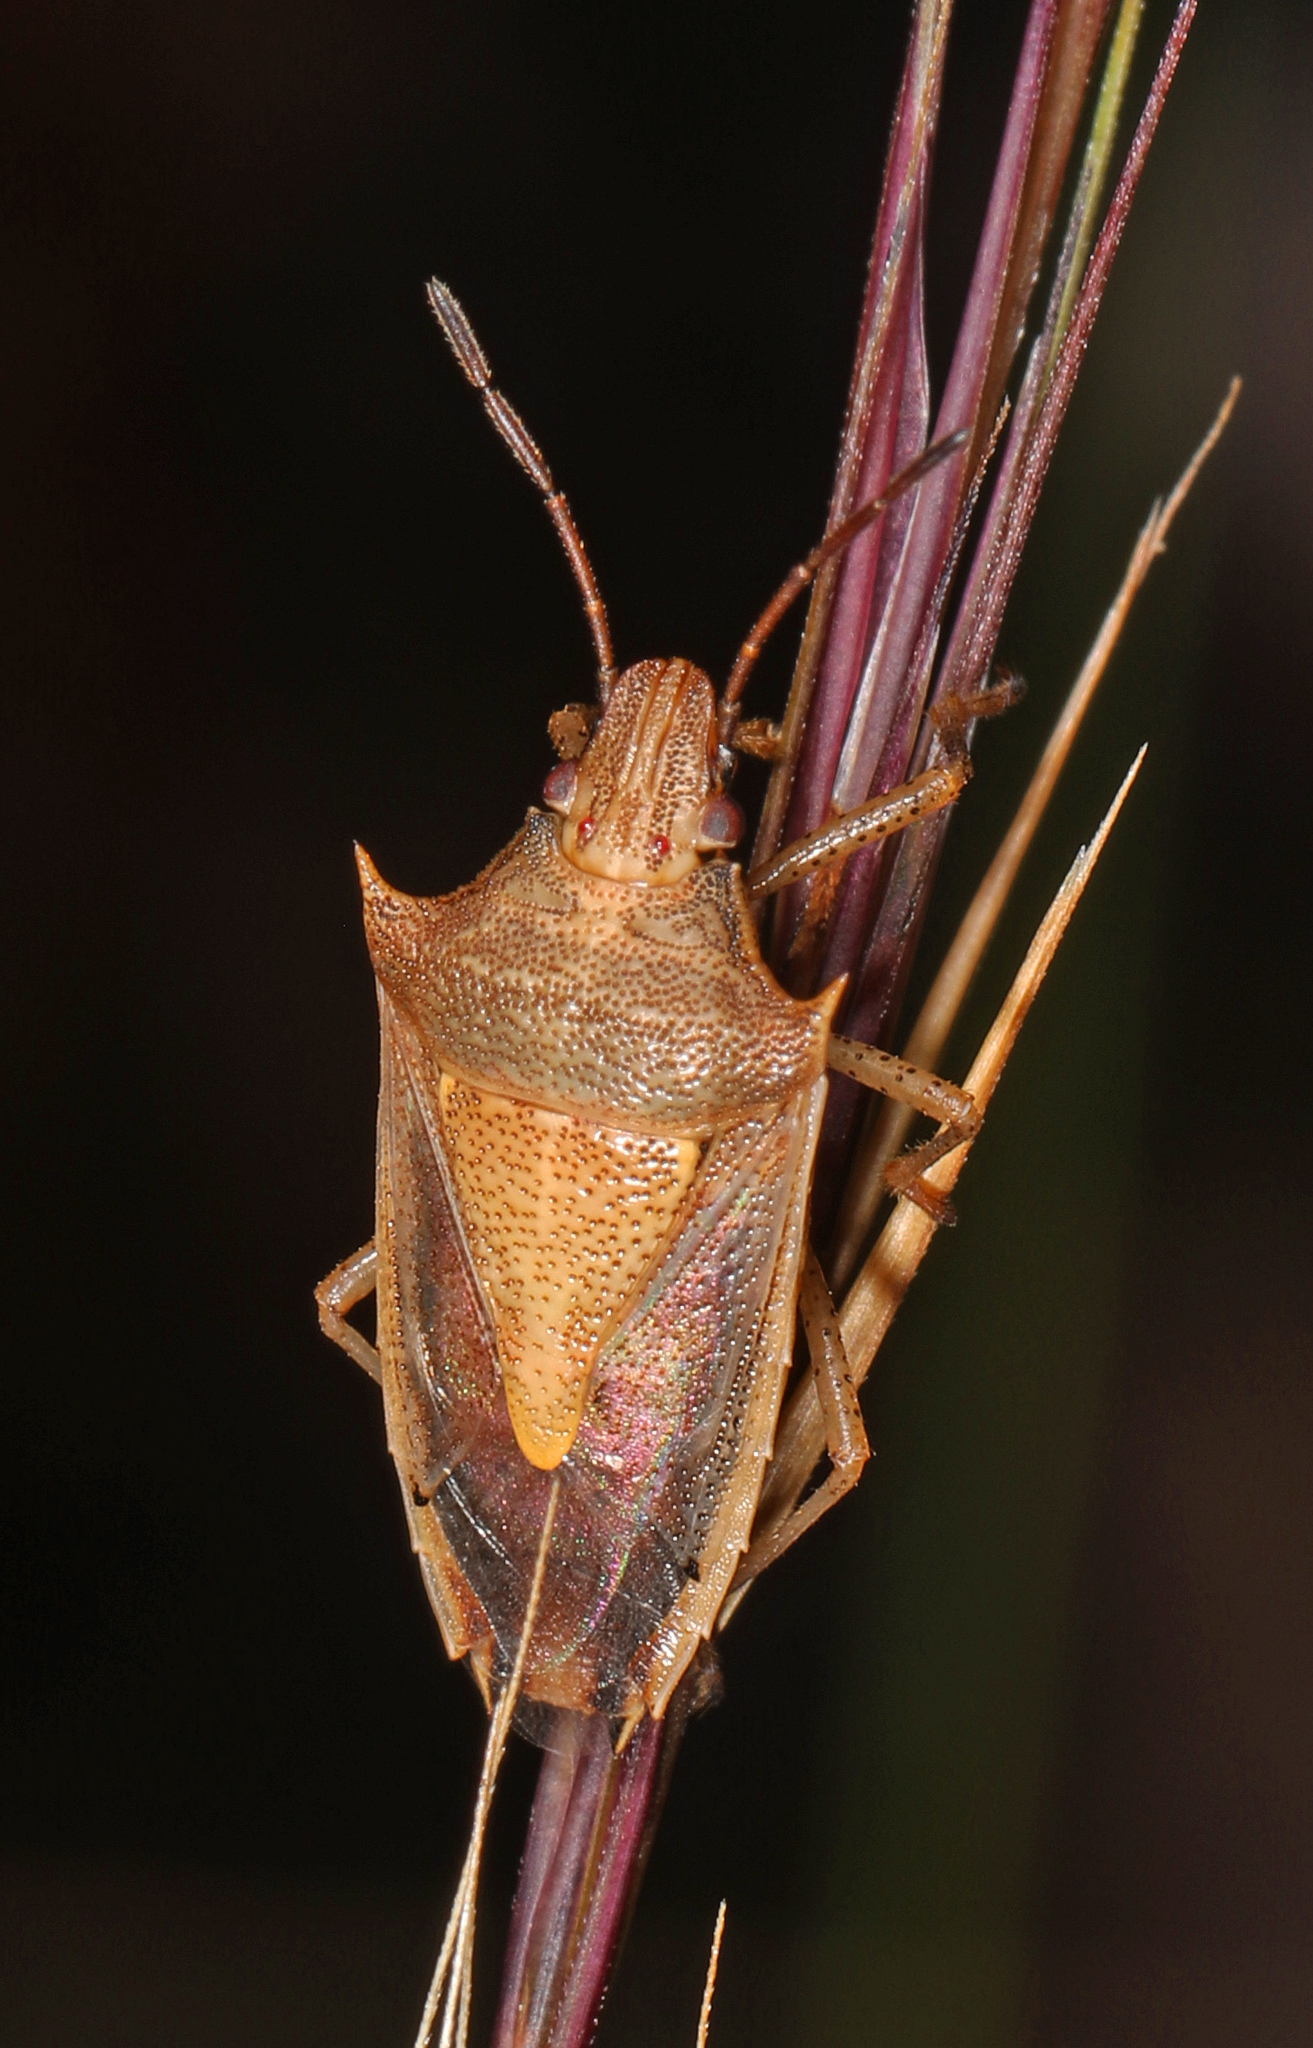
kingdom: Animalia
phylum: Arthropoda
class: Insecta
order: Hemiptera
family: Pentatomidae
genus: Oebalus
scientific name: Oebalus pugnax
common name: Rice stink bug
